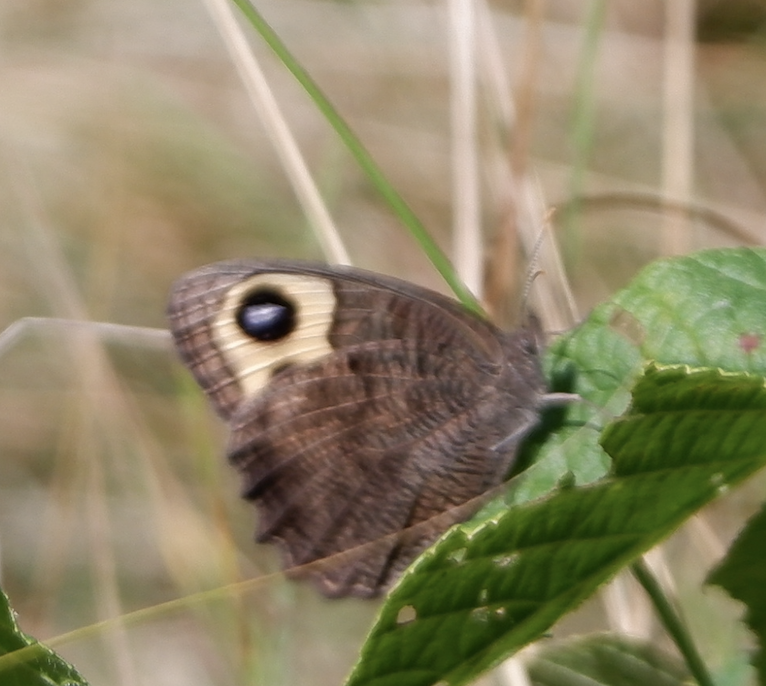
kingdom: Animalia
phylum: Arthropoda
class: Insecta
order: Lepidoptera
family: Nymphalidae
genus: Cercyonis
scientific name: Cercyonis pegala
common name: Common wood-nymph
